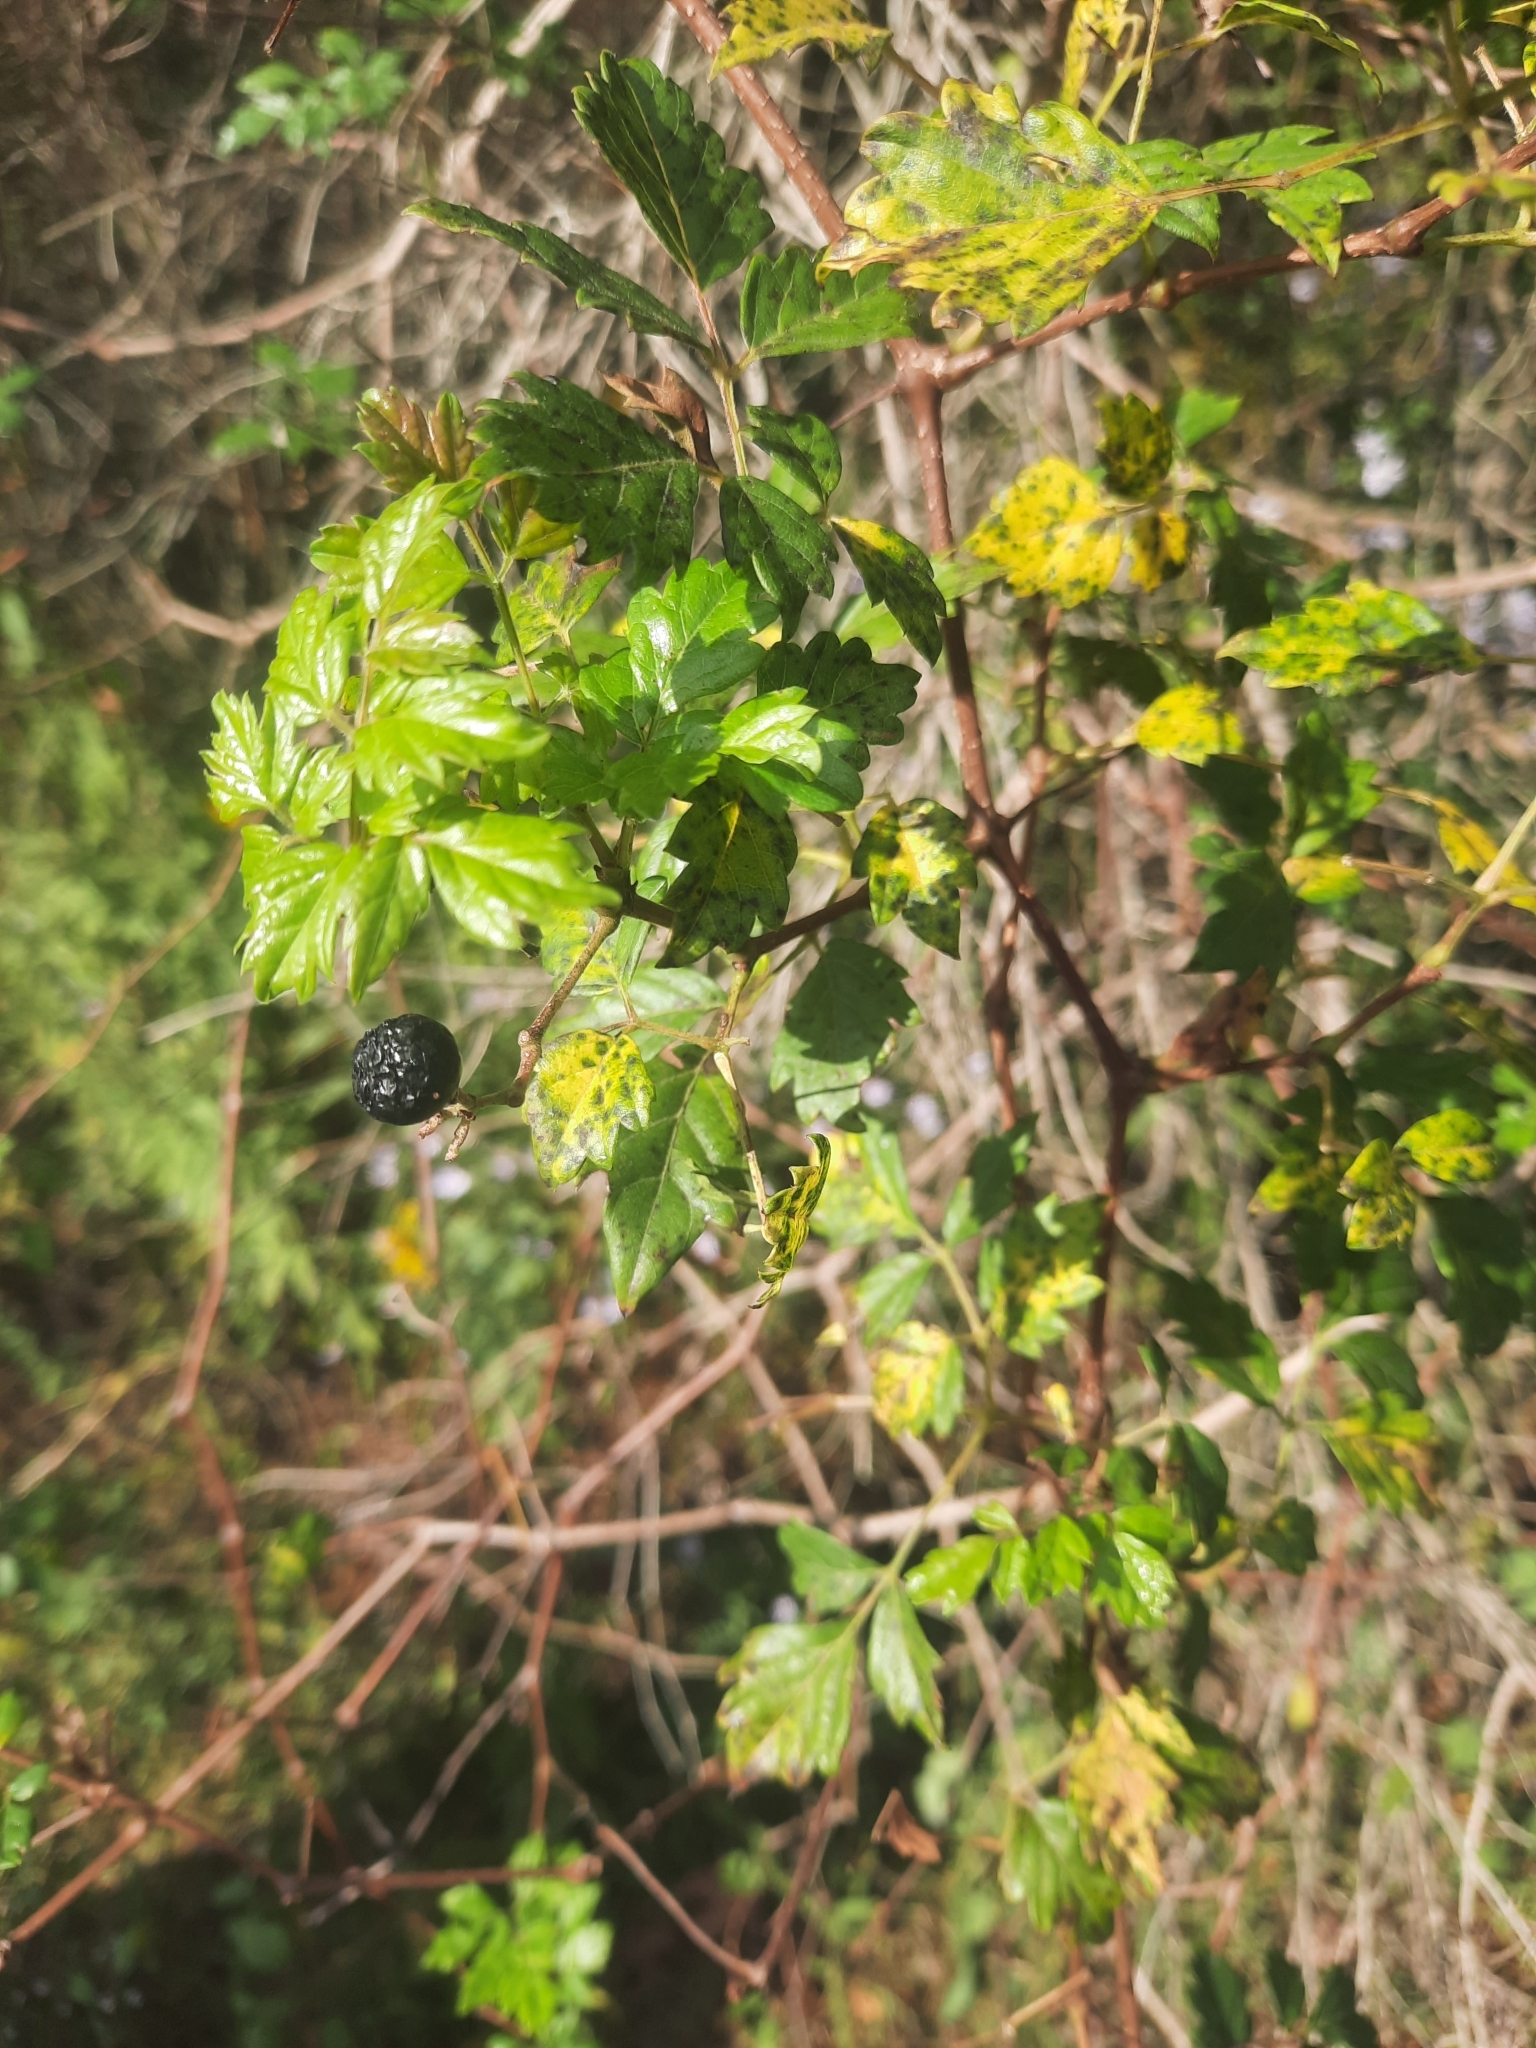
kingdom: Plantae
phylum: Tracheophyta
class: Magnoliopsida
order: Vitales
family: Vitaceae
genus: Nekemias
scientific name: Nekemias arborea
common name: Peppervine
